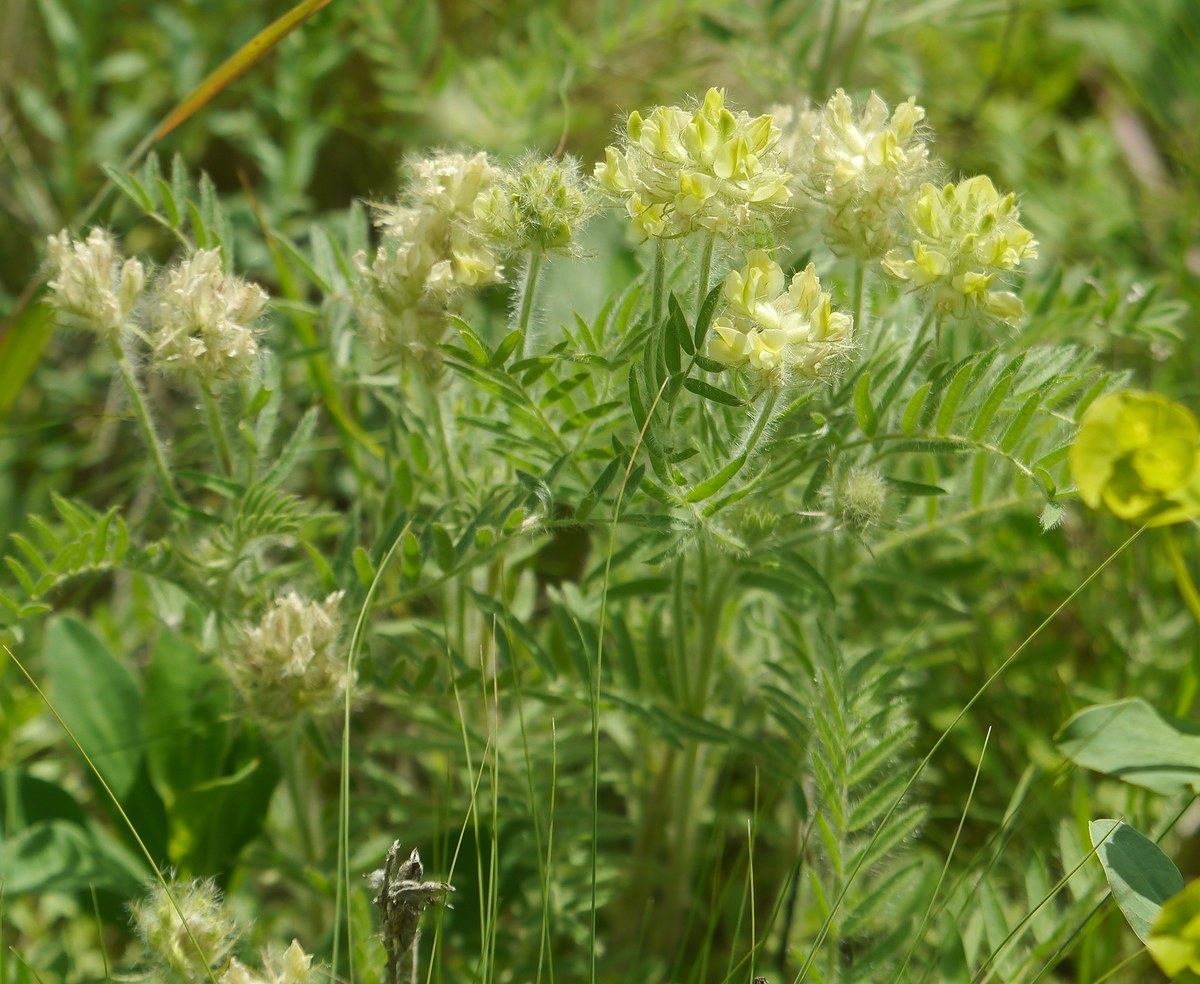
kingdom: Plantae
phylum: Tracheophyta
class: Magnoliopsida
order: Fabales
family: Fabaceae
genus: Oxytropis
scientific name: Oxytropis pilosa
